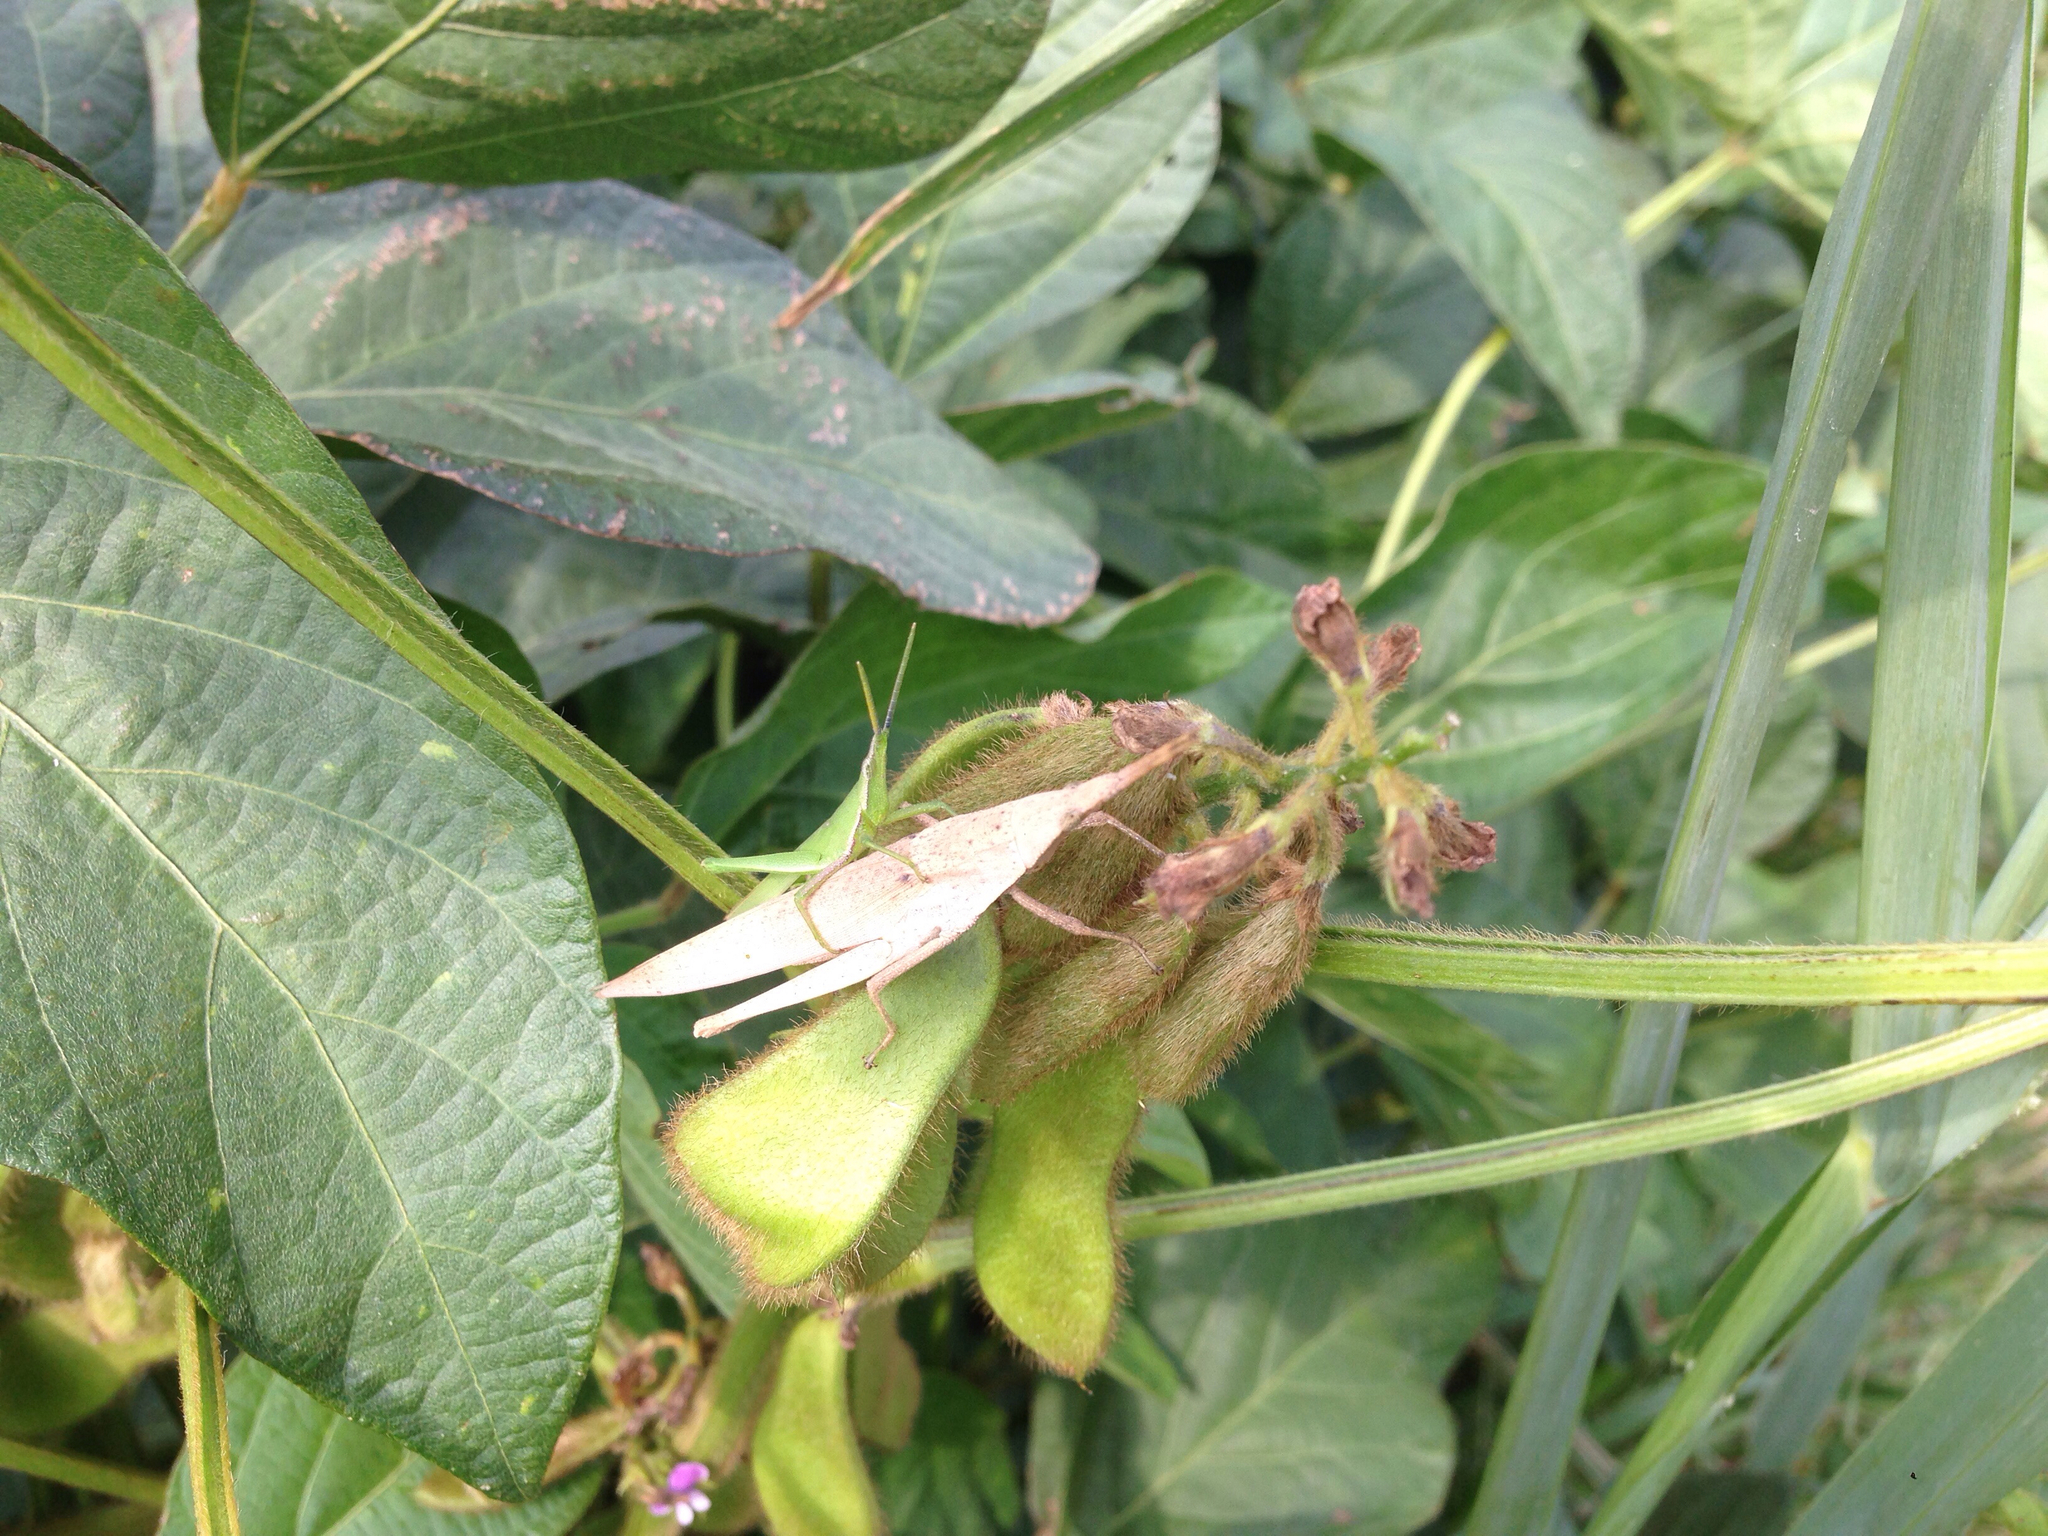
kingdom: Animalia
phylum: Arthropoda
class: Insecta
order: Orthoptera
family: Pyrgomorphidae
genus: Atractomorpha
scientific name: Atractomorpha lata
